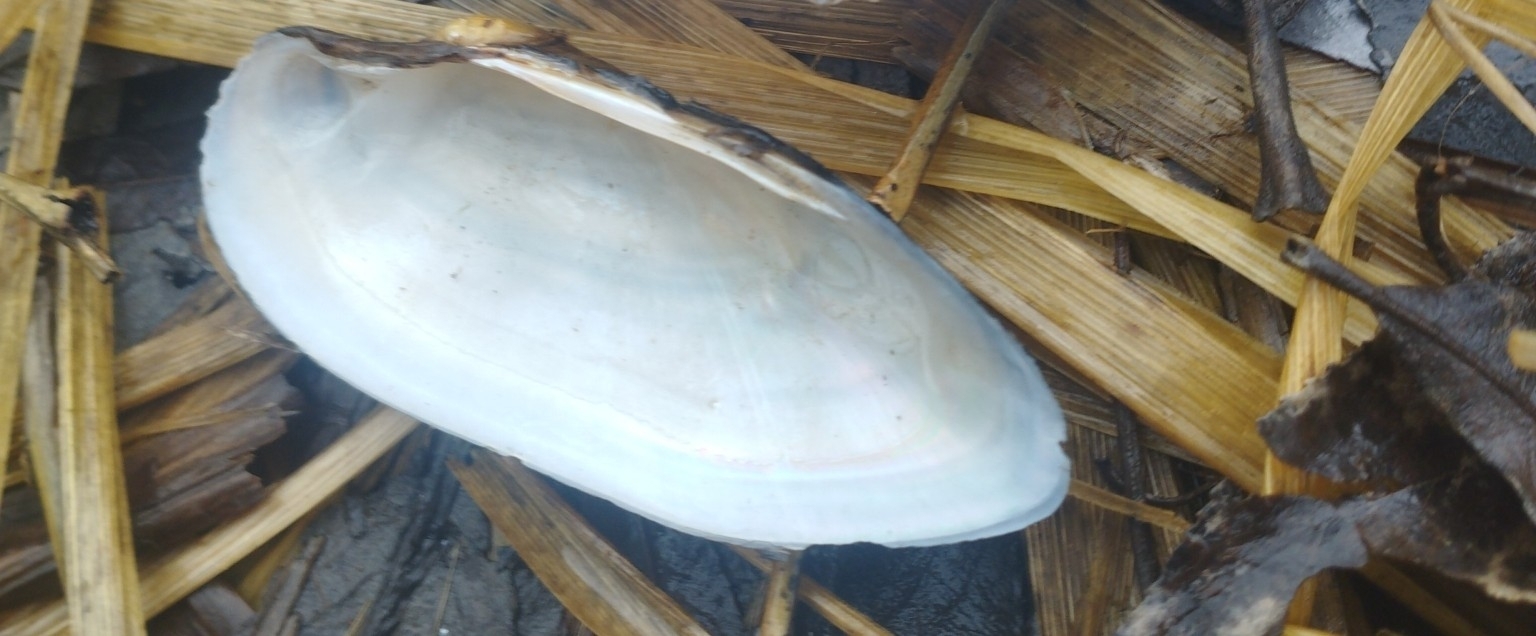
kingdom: Animalia
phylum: Mollusca
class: Bivalvia
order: Unionida
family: Unionidae
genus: Unio
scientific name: Unio pictorum
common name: Painter's mussel
